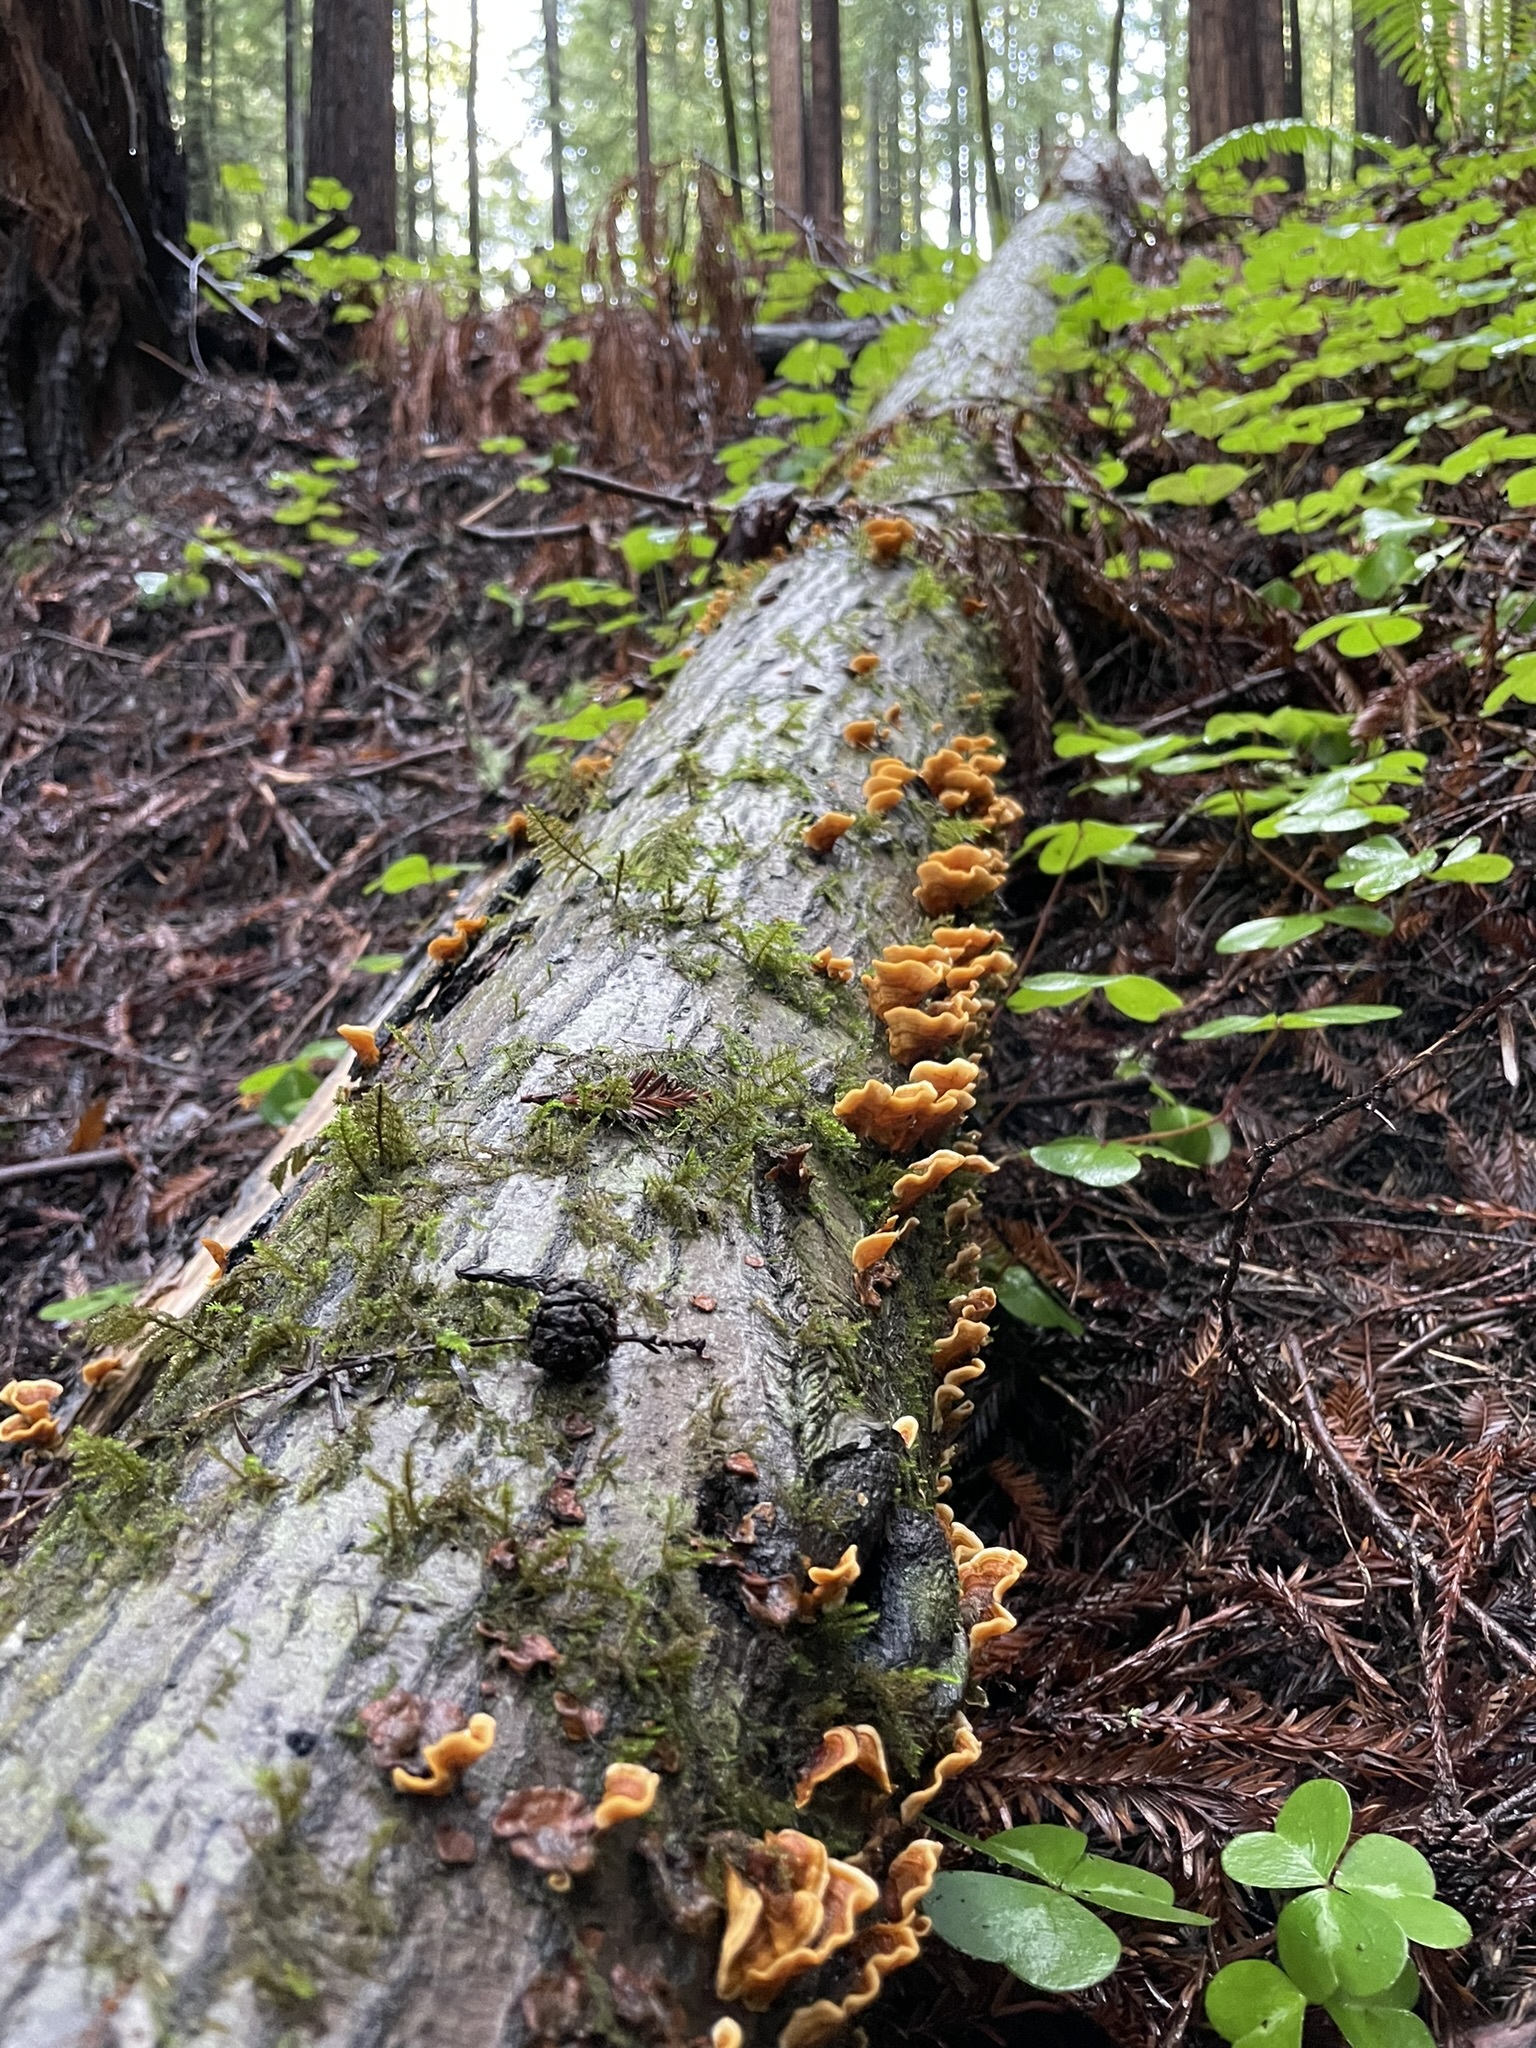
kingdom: Fungi
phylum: Basidiomycota
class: Agaricomycetes
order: Russulales
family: Stereaceae
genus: Stereum
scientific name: Stereum hirsutum
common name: Hairy curtain crust
